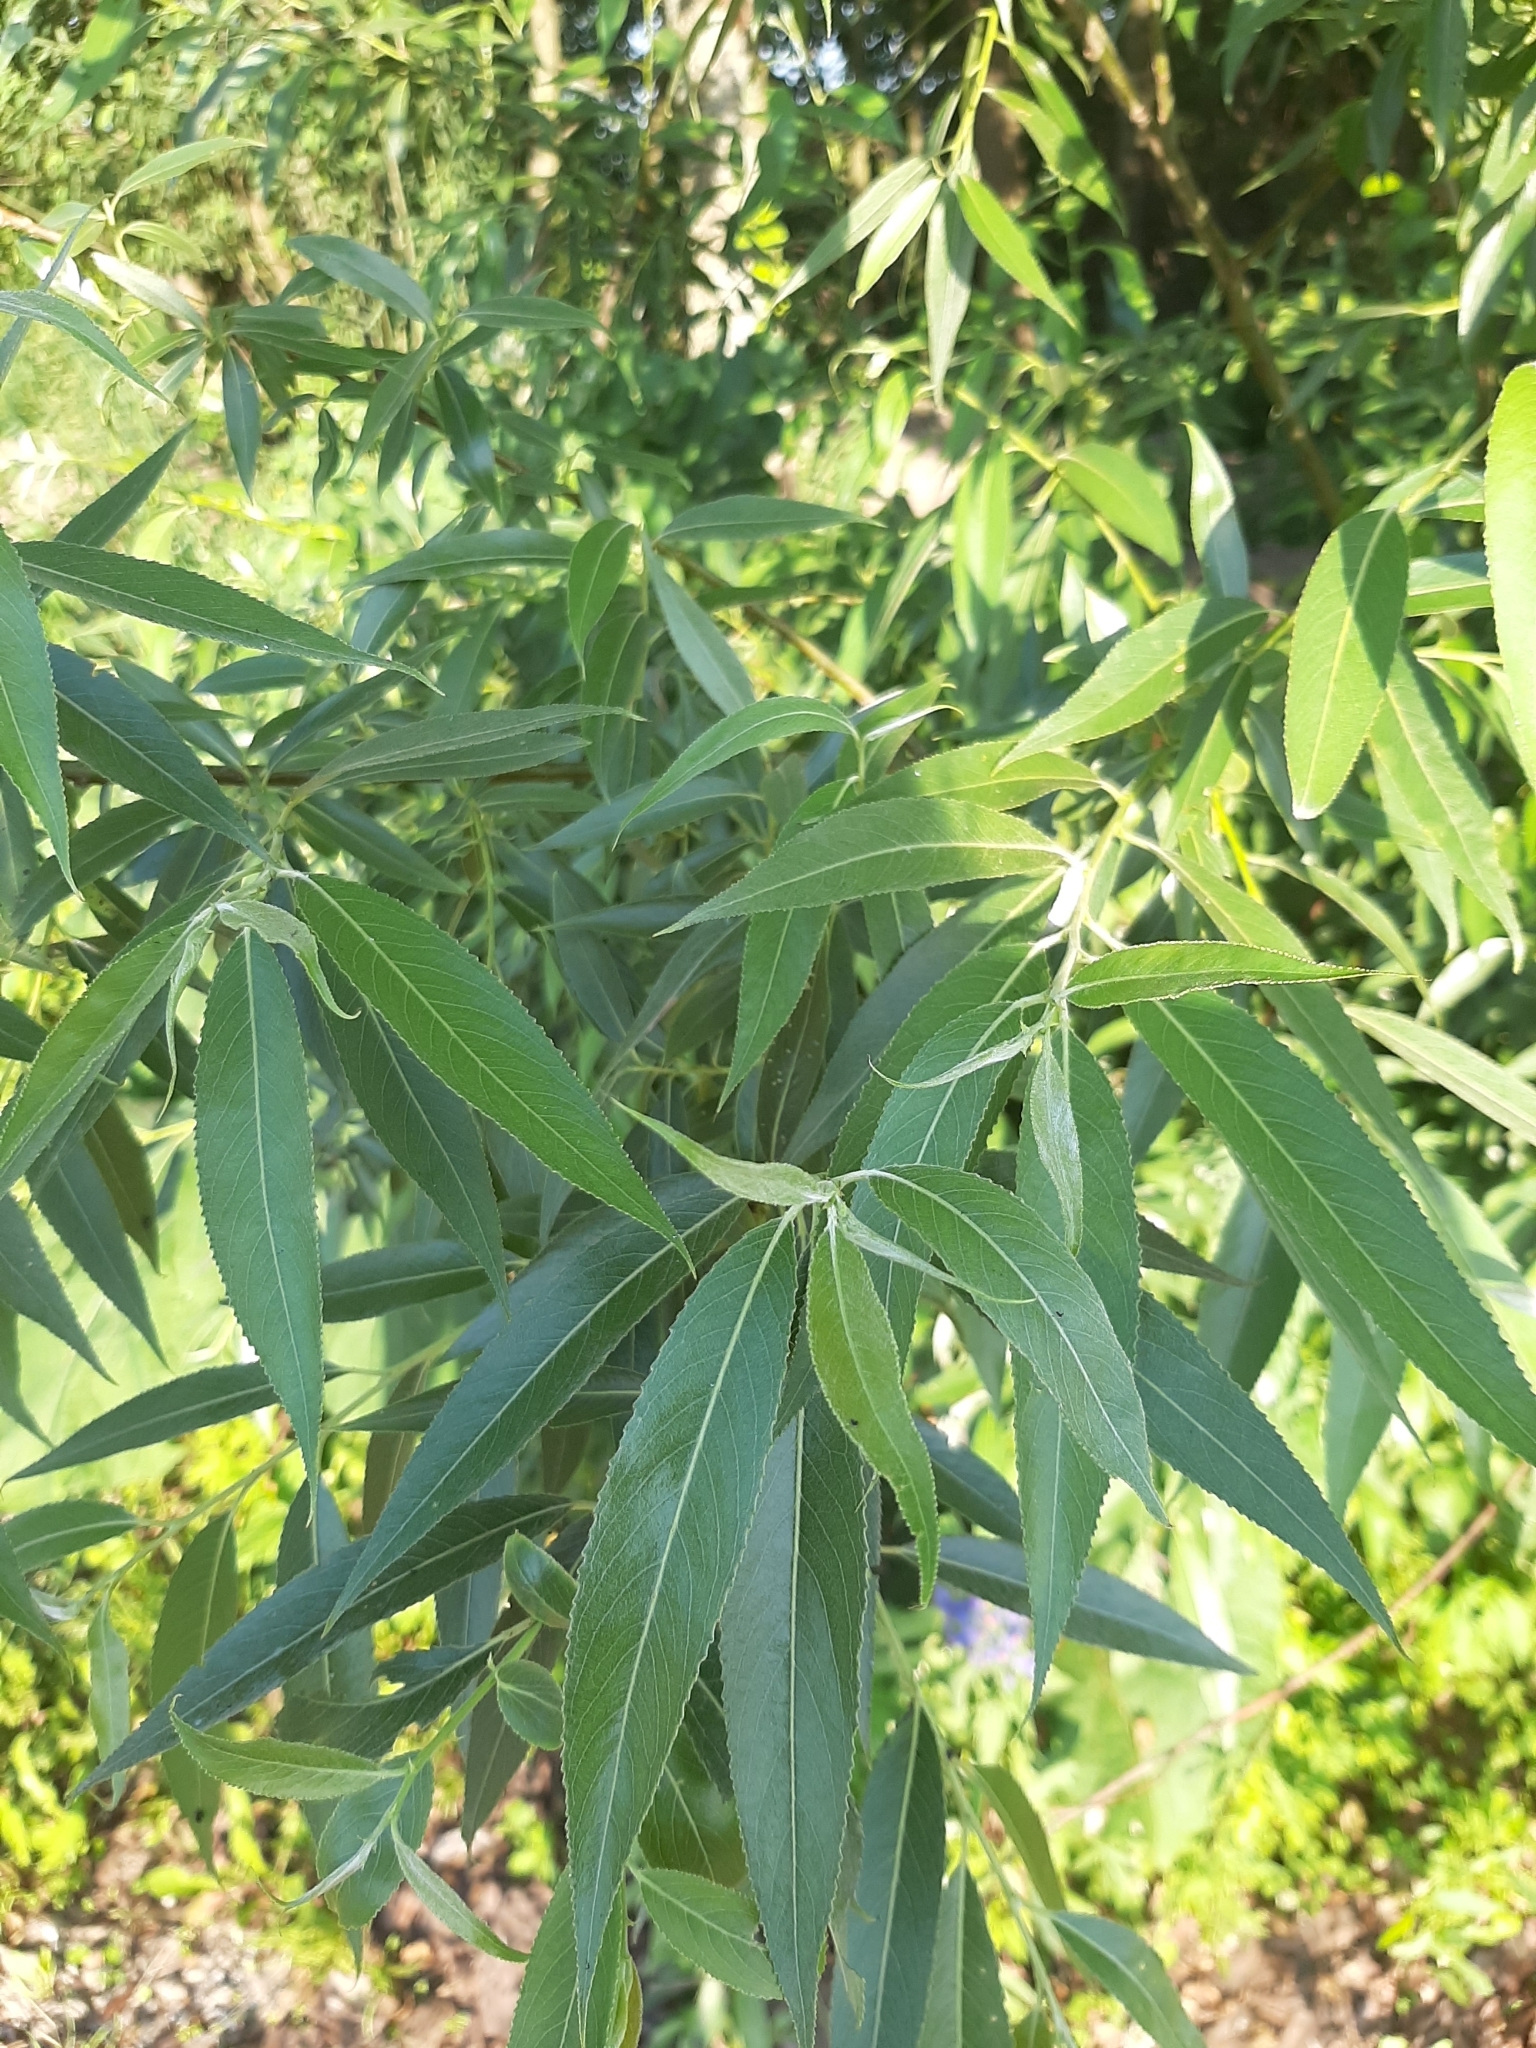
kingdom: Plantae
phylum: Tracheophyta
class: Magnoliopsida
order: Malpighiales
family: Salicaceae
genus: Salix
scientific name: Salix fragilis
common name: Crack willow
